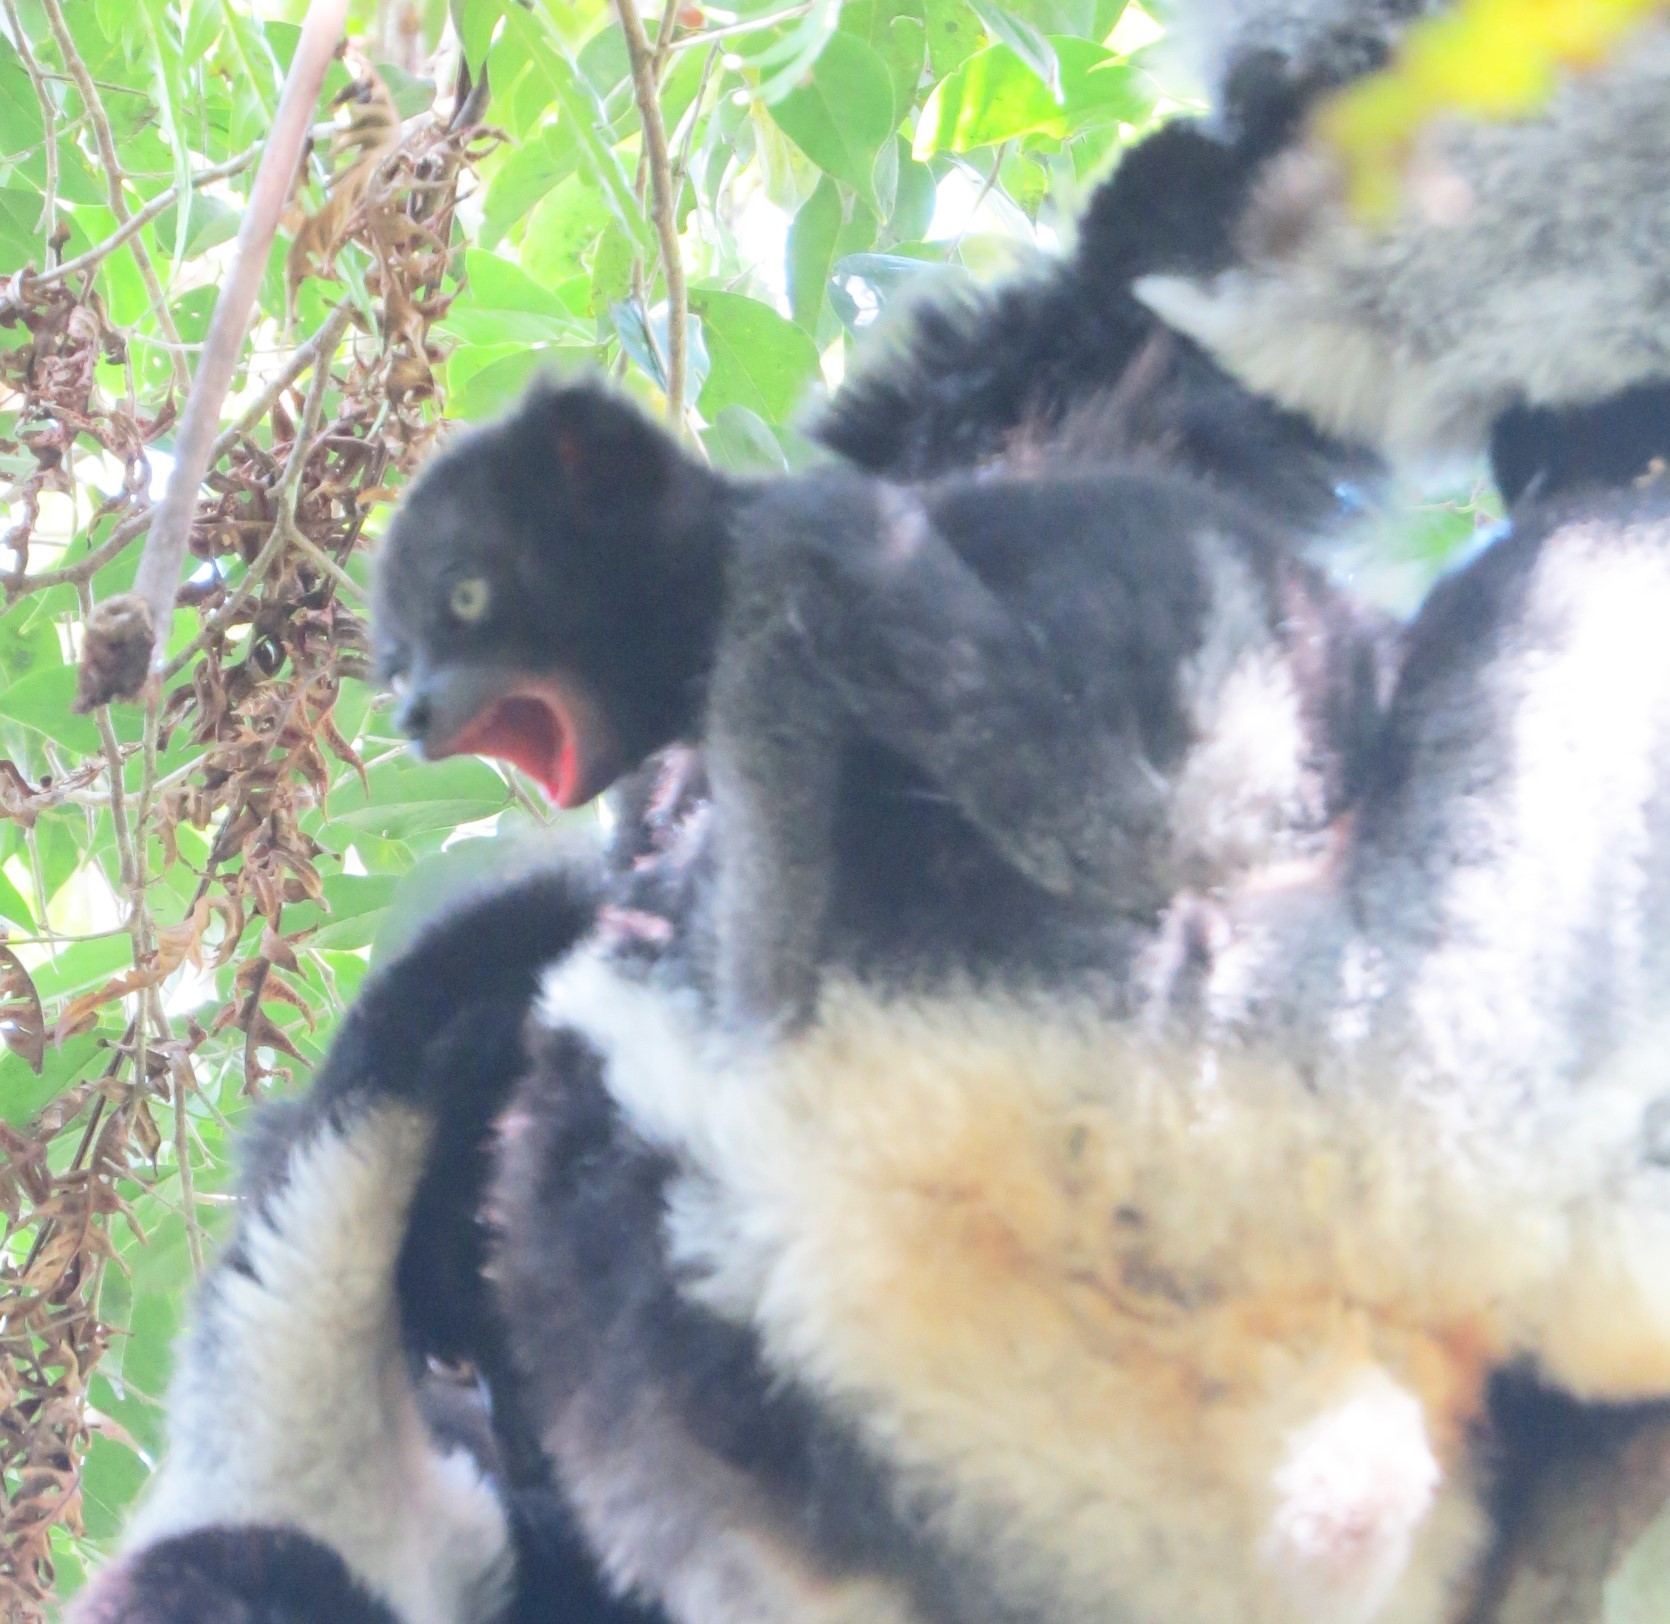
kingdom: Animalia
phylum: Chordata
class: Mammalia
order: Primates
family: Indriidae
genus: Indri
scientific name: Indri indri
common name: Indri
